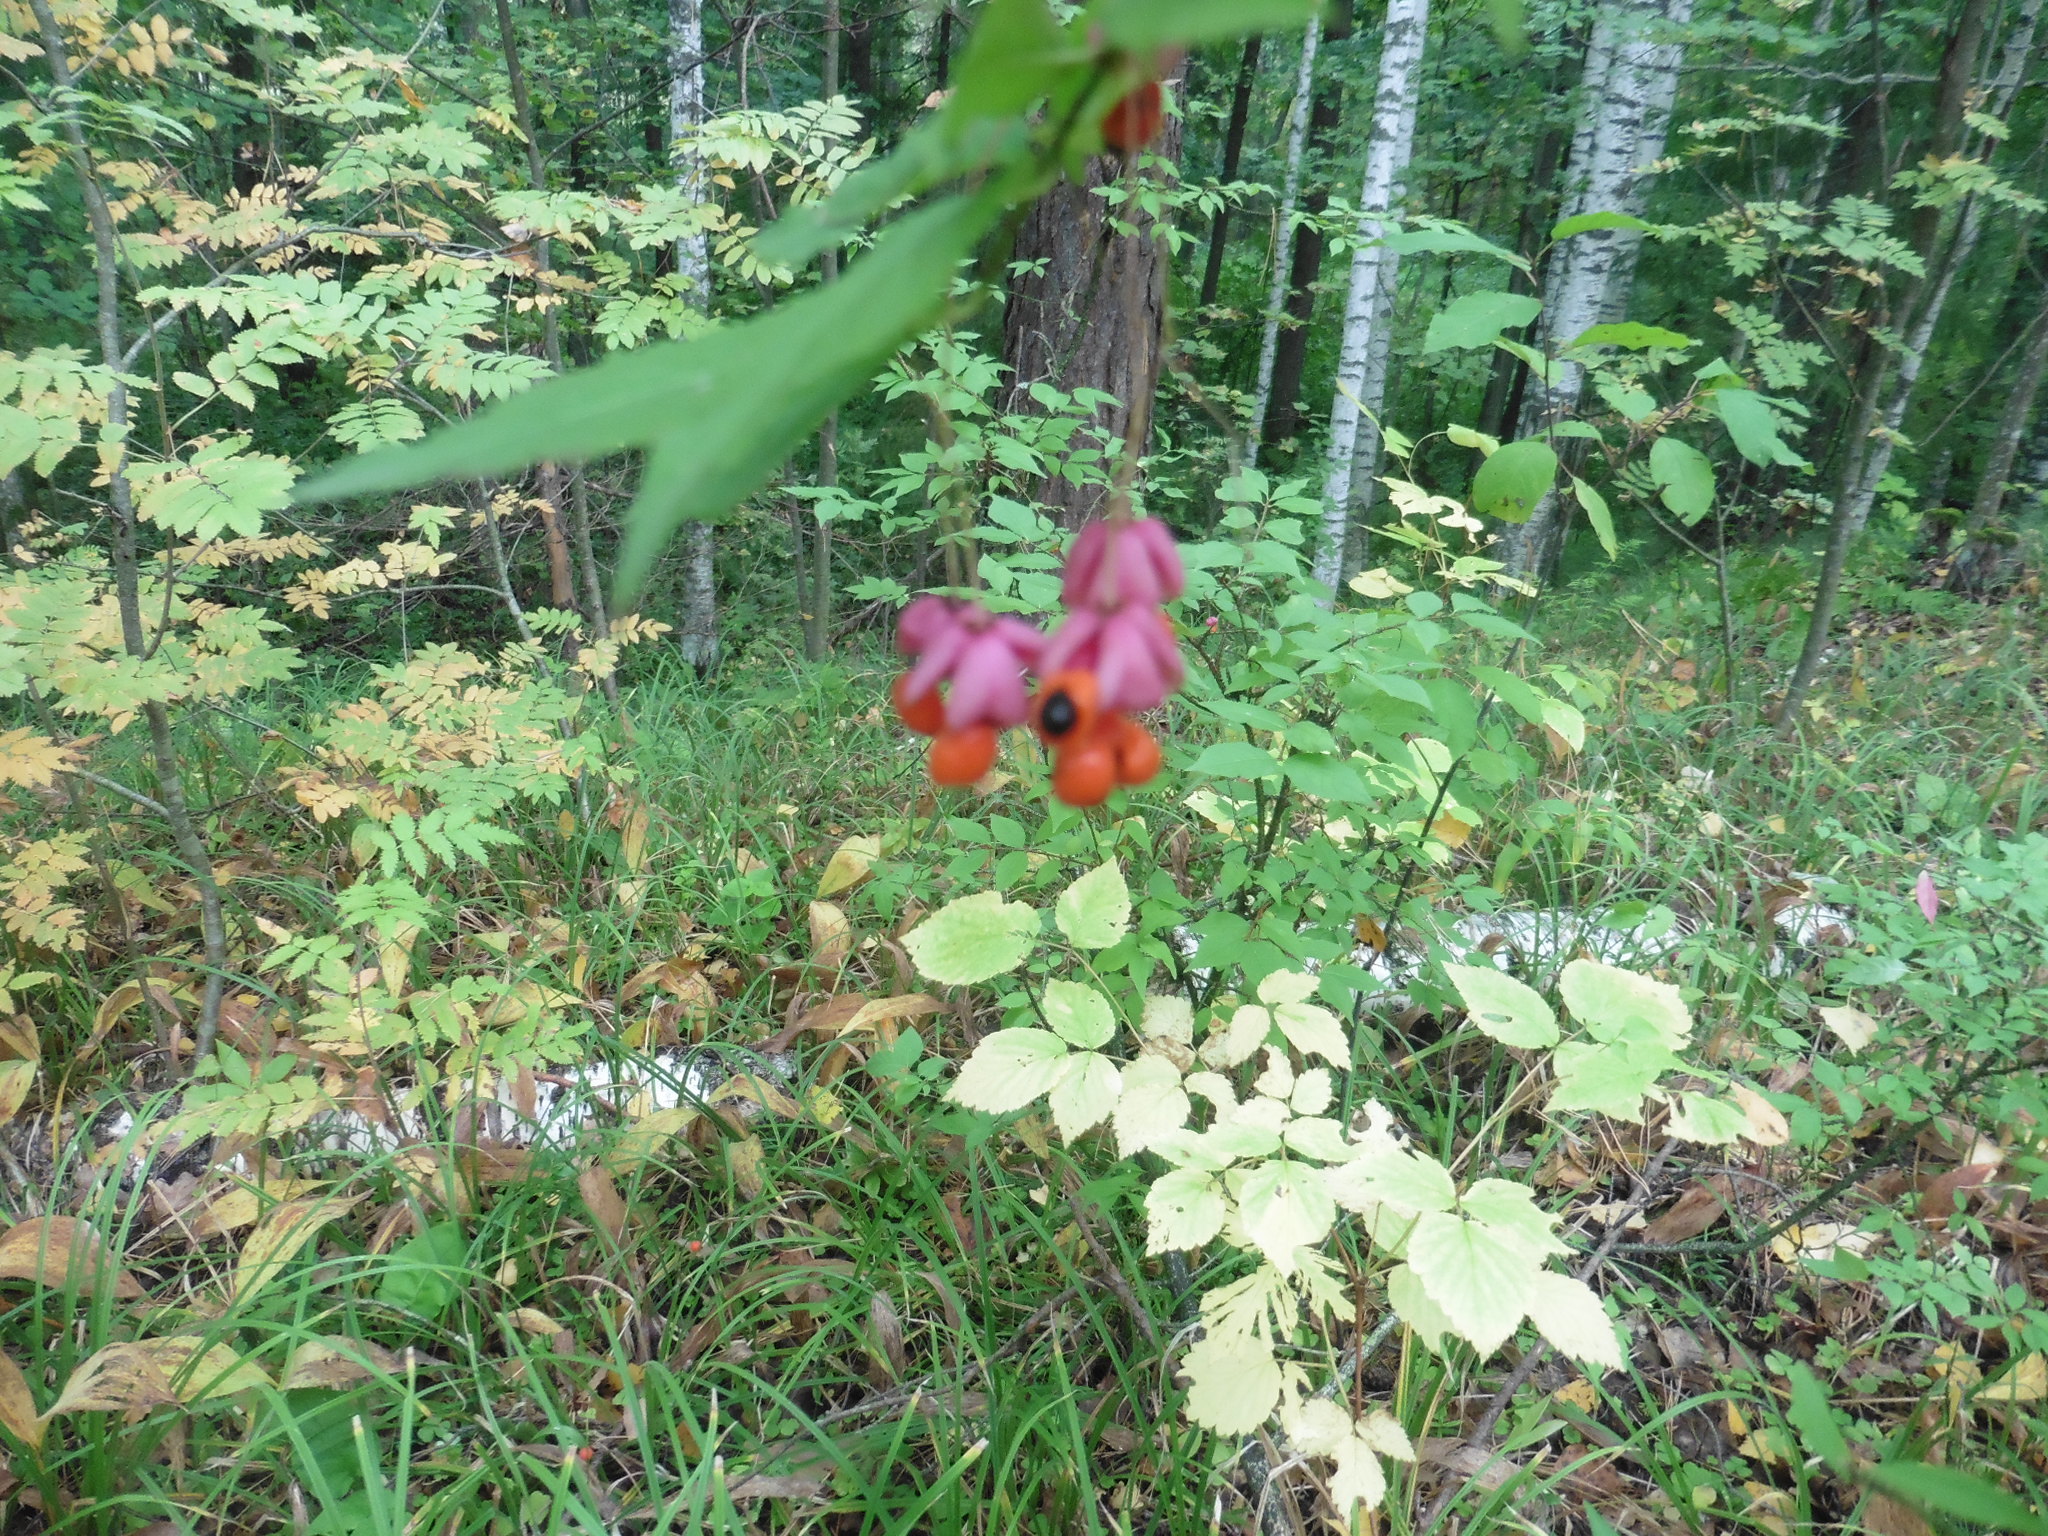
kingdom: Plantae
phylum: Tracheophyta
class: Magnoliopsida
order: Celastrales
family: Celastraceae
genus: Euonymus
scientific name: Euonymus verrucosus
